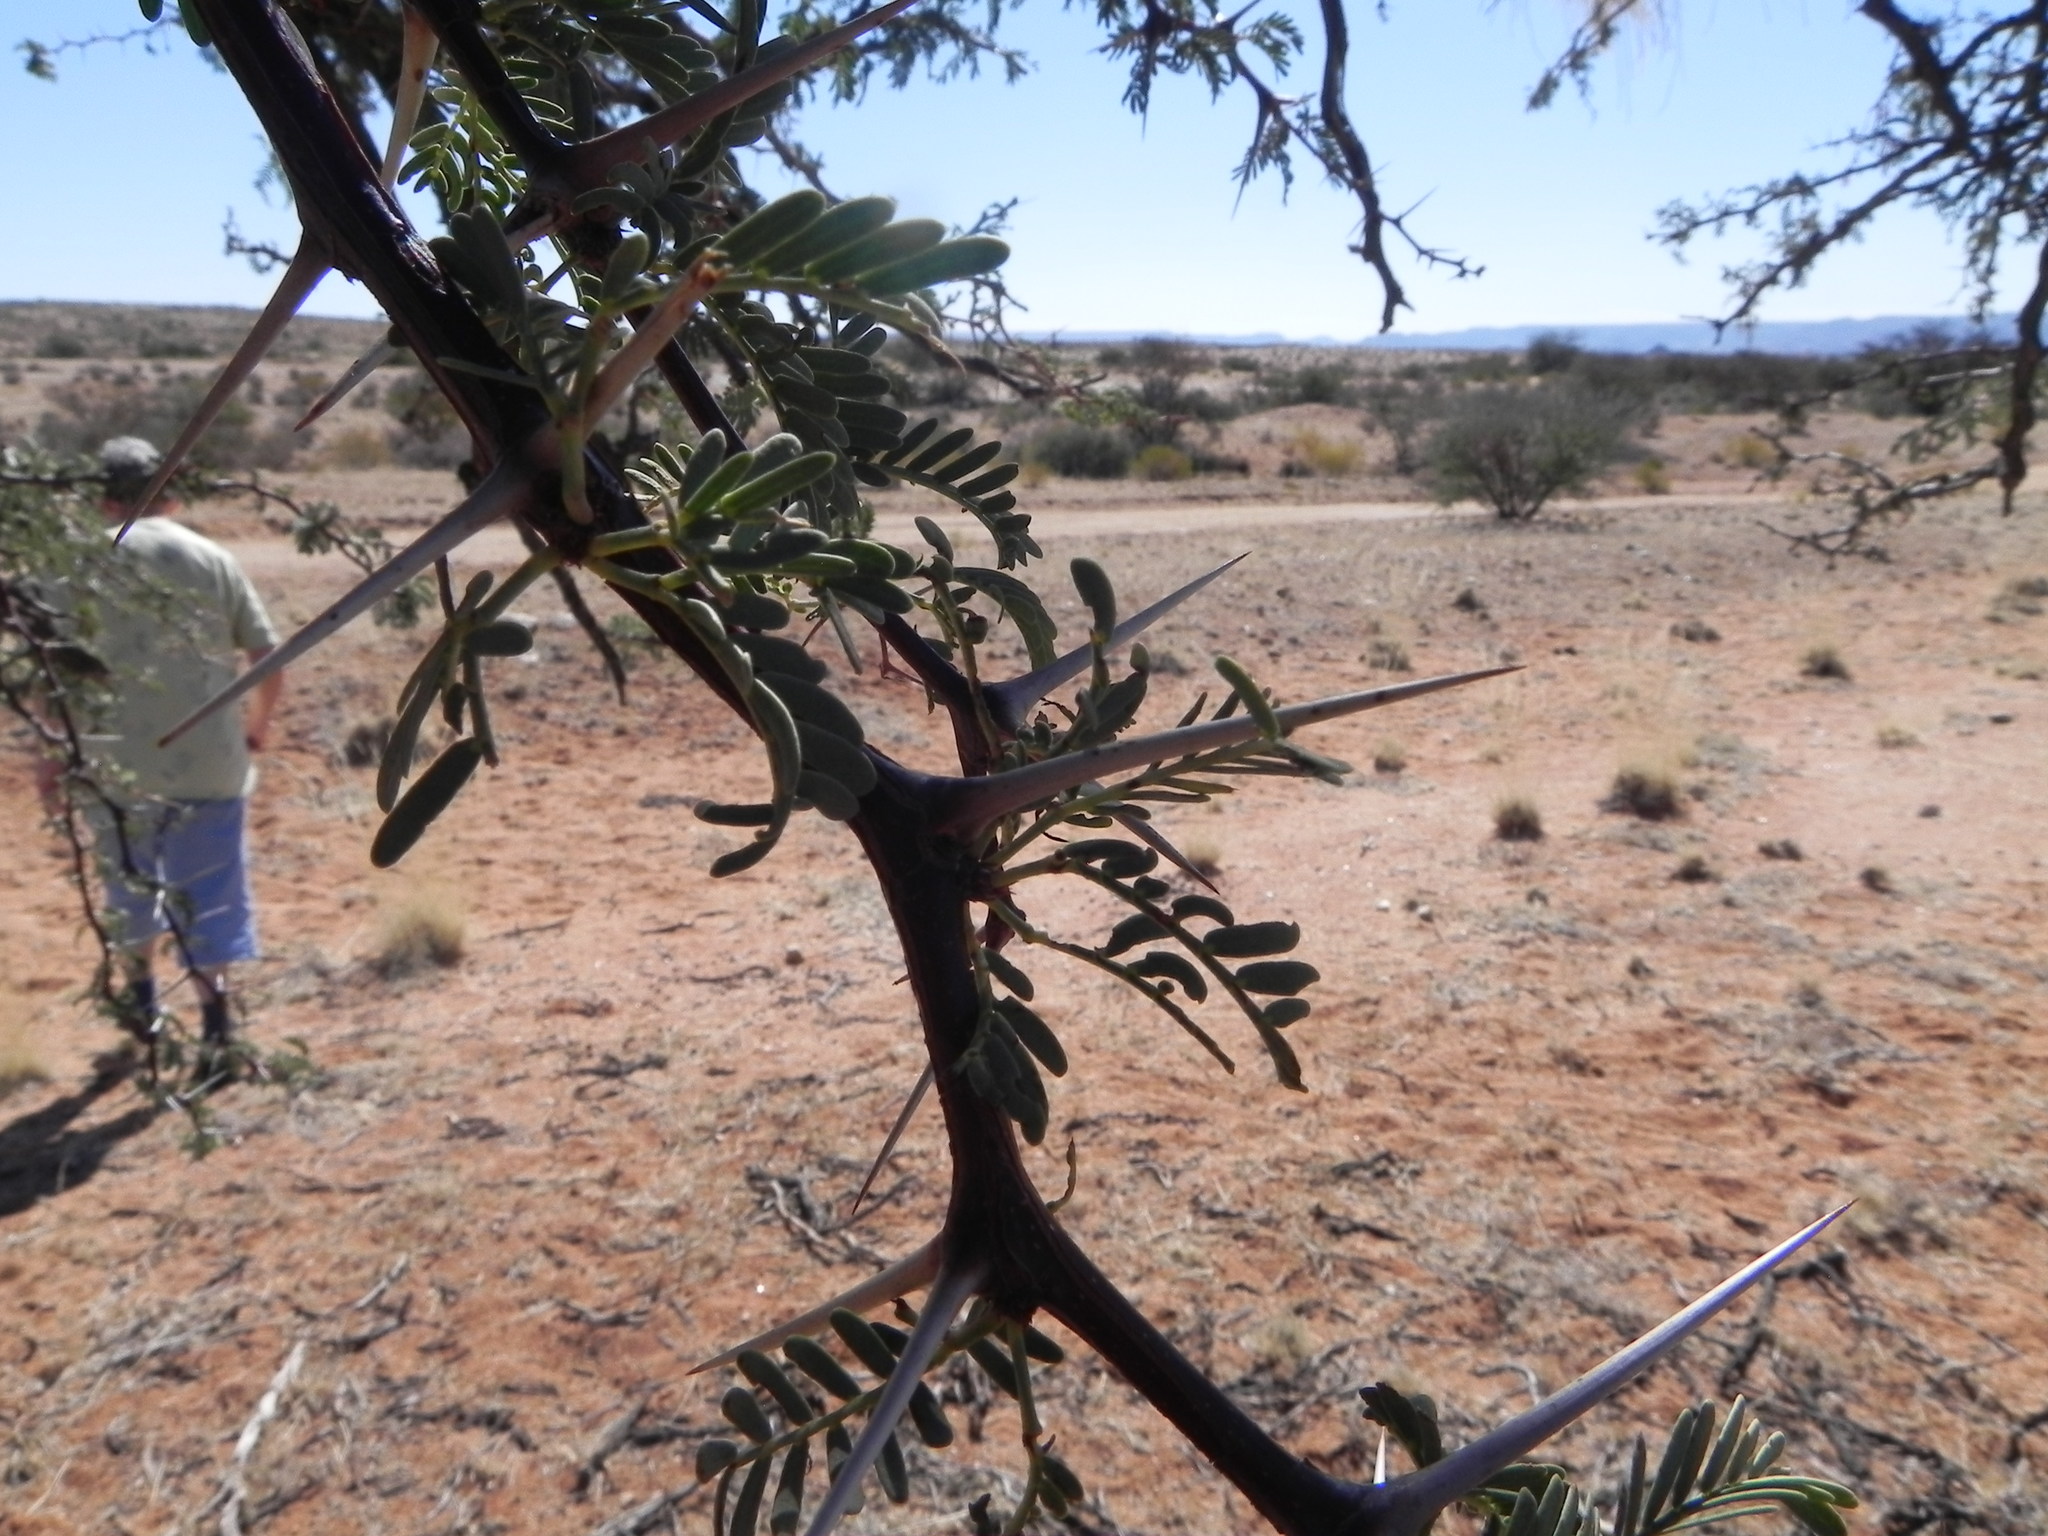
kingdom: Plantae
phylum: Tracheophyta
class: Magnoliopsida
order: Fabales
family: Fabaceae
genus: Vachellia
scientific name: Vachellia karroo
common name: Sweet thorn
